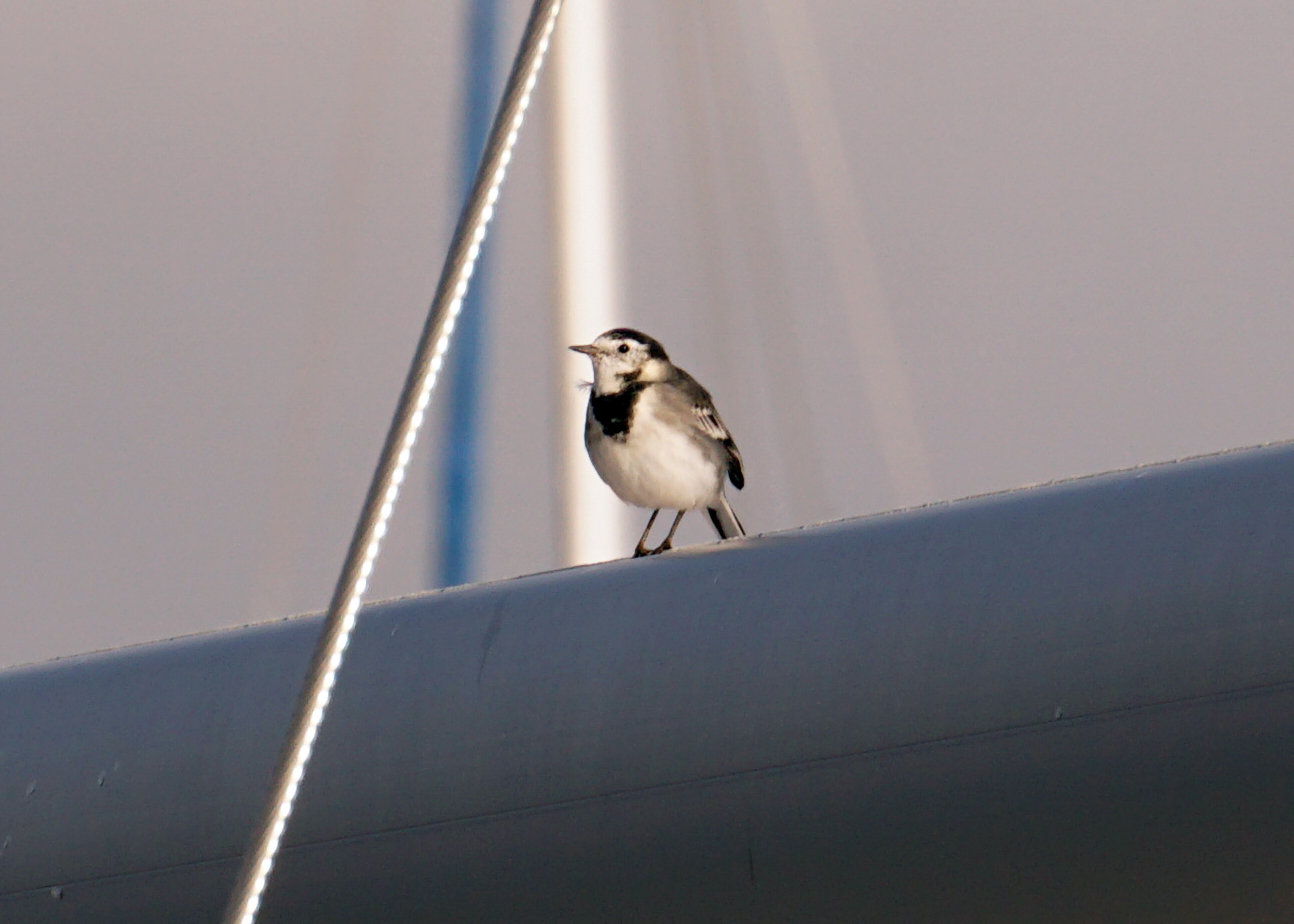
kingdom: Animalia
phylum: Chordata
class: Aves
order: Passeriformes
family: Motacillidae
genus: Motacilla
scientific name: Motacilla alba
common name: White wagtail
